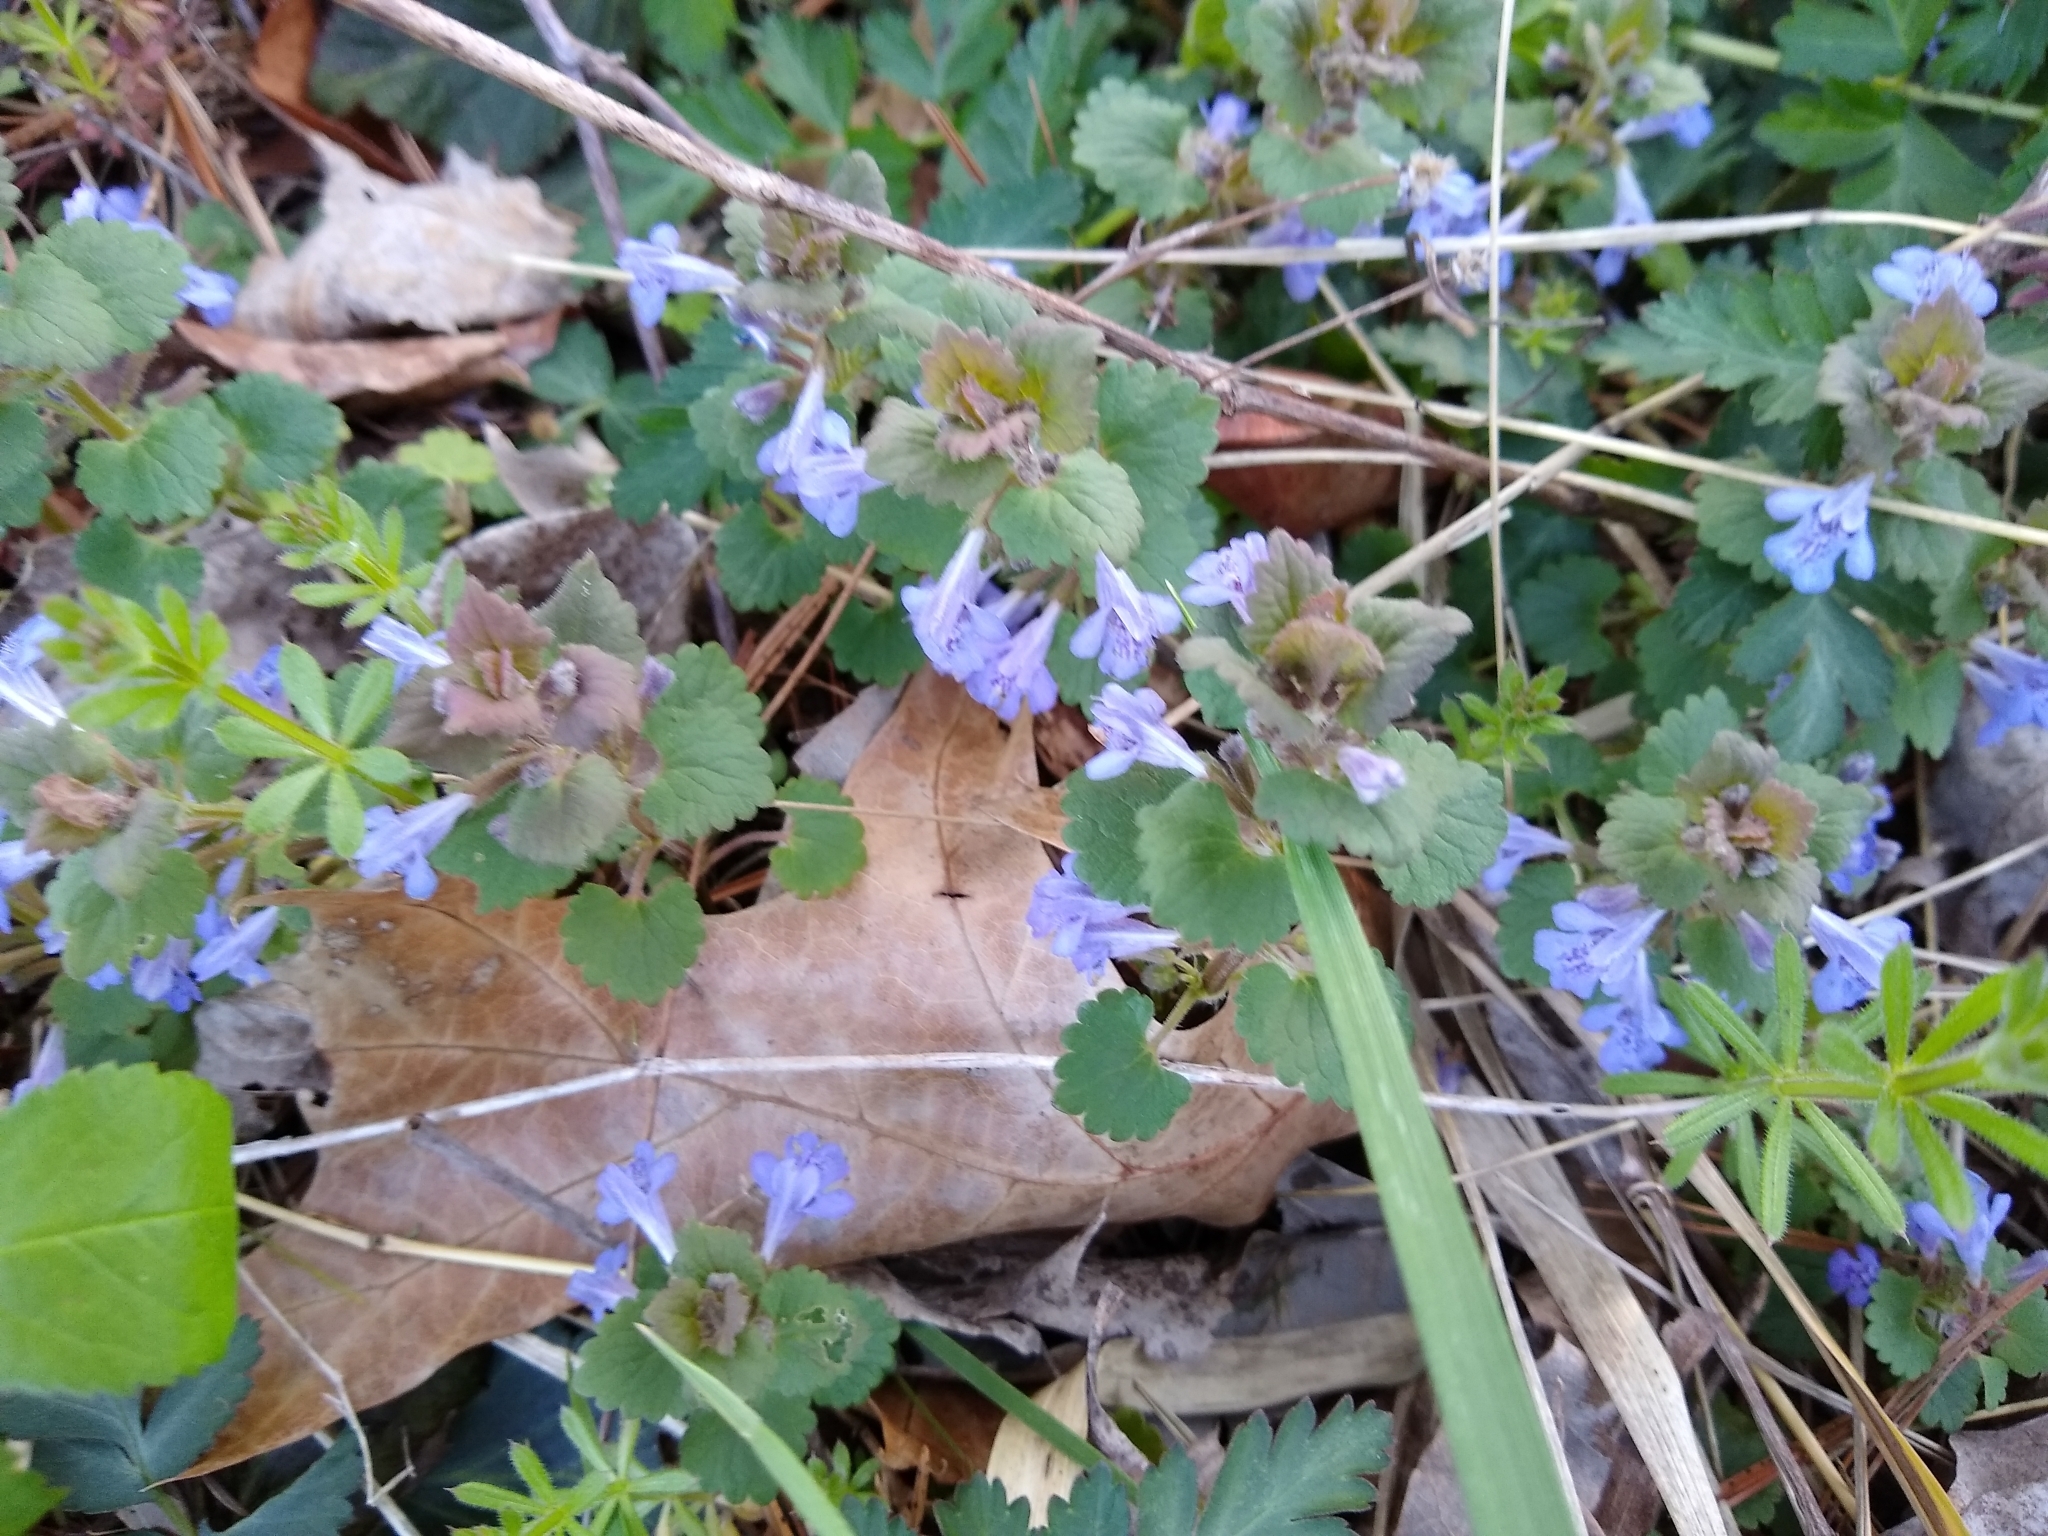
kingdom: Plantae
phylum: Tracheophyta
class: Magnoliopsida
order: Lamiales
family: Lamiaceae
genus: Glechoma
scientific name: Glechoma hederacea
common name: Ground ivy
